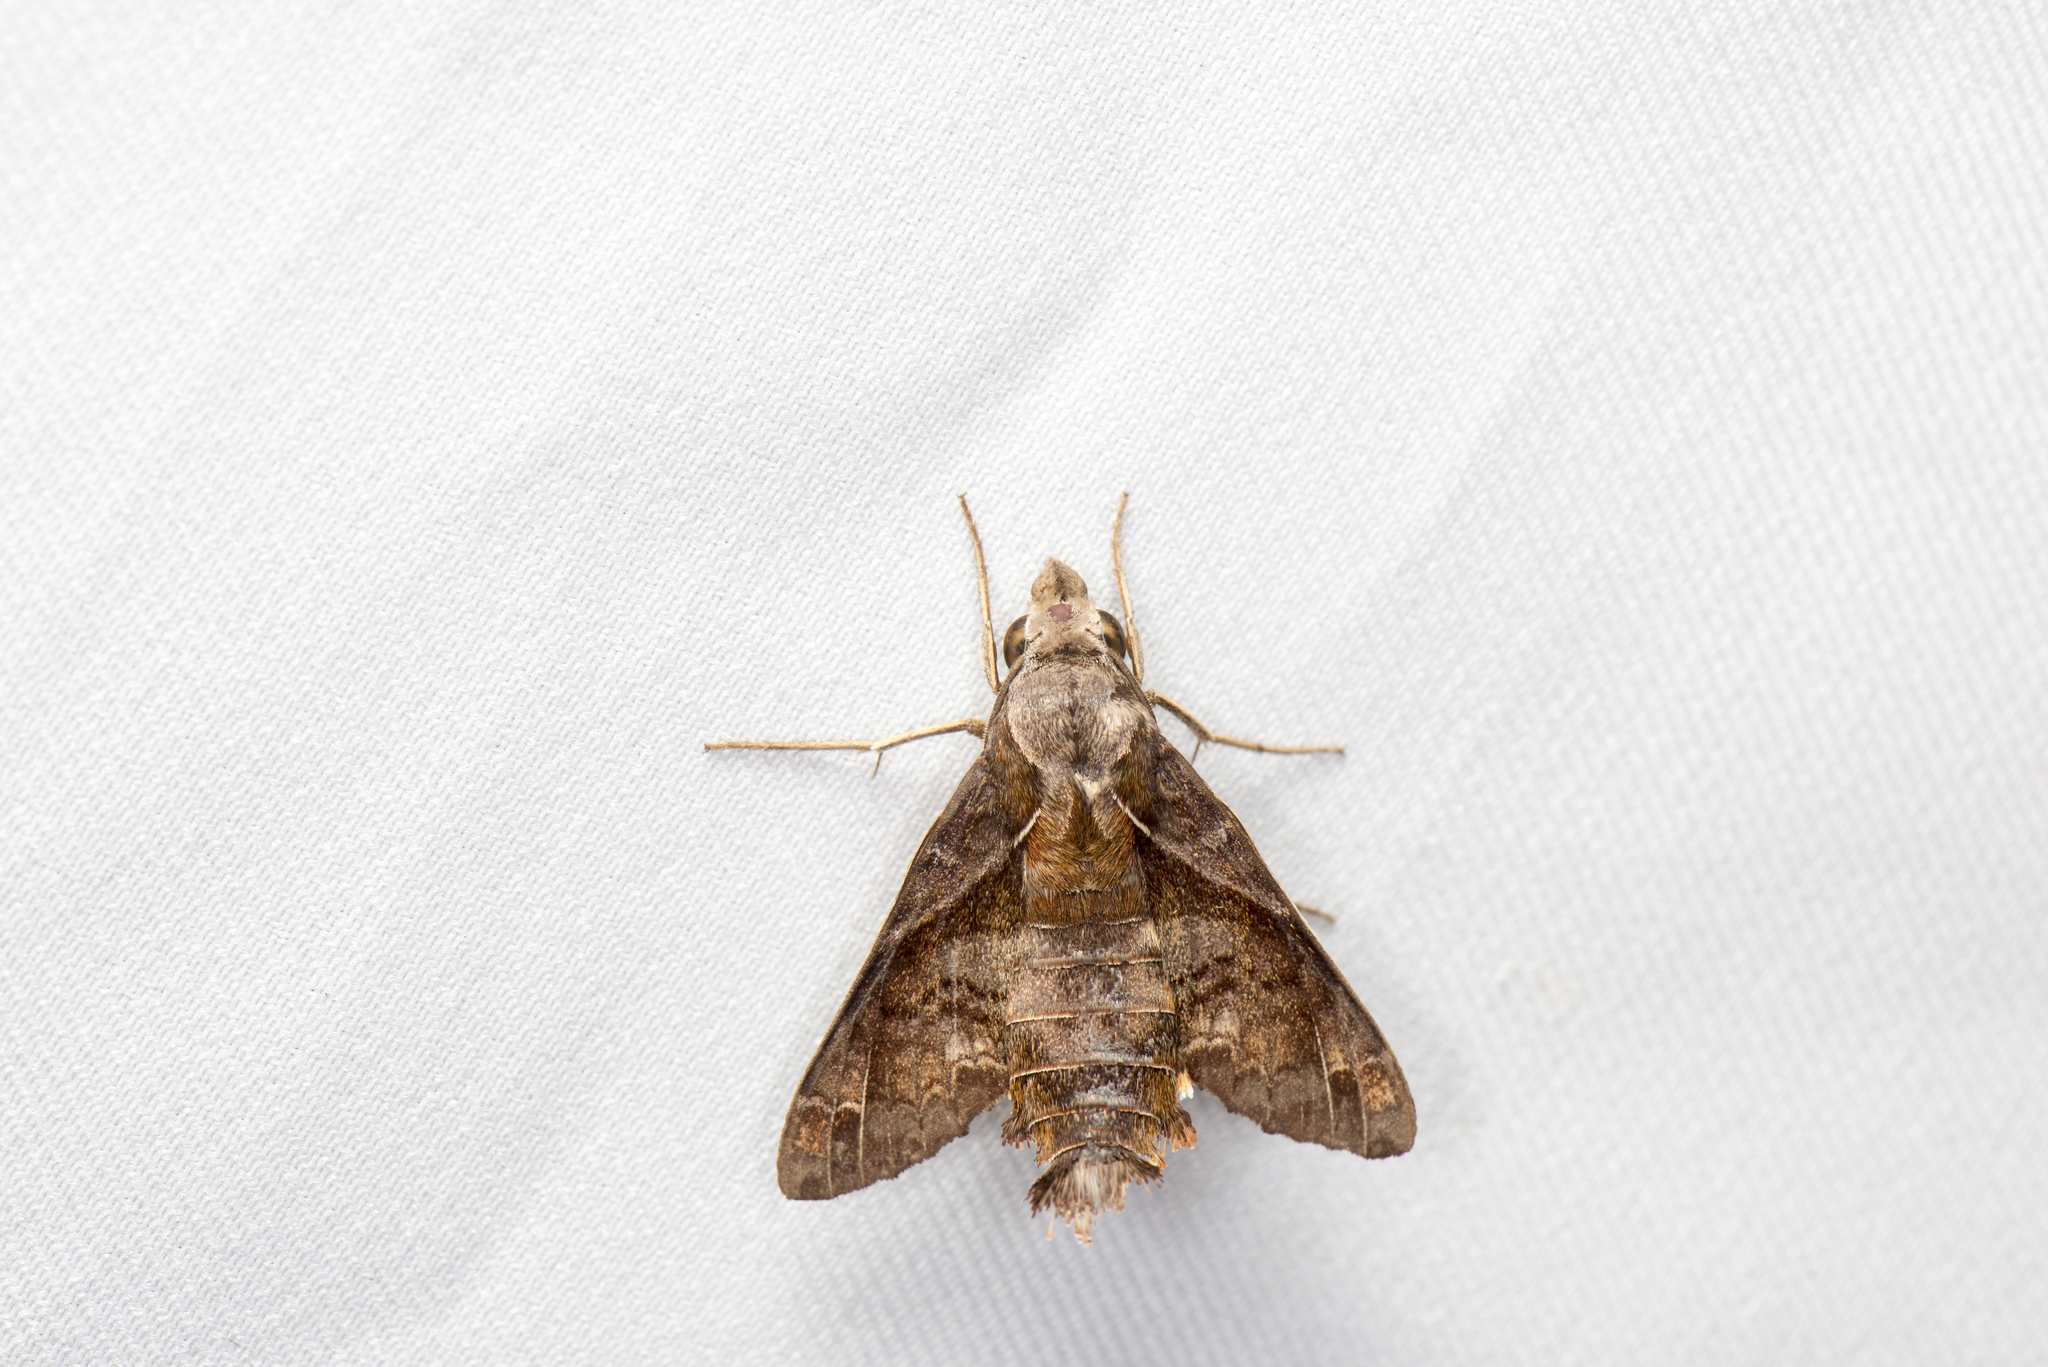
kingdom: Animalia
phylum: Arthropoda
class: Insecta
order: Lepidoptera
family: Sphingidae
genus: Macroglossum
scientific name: Macroglossum fritzei
